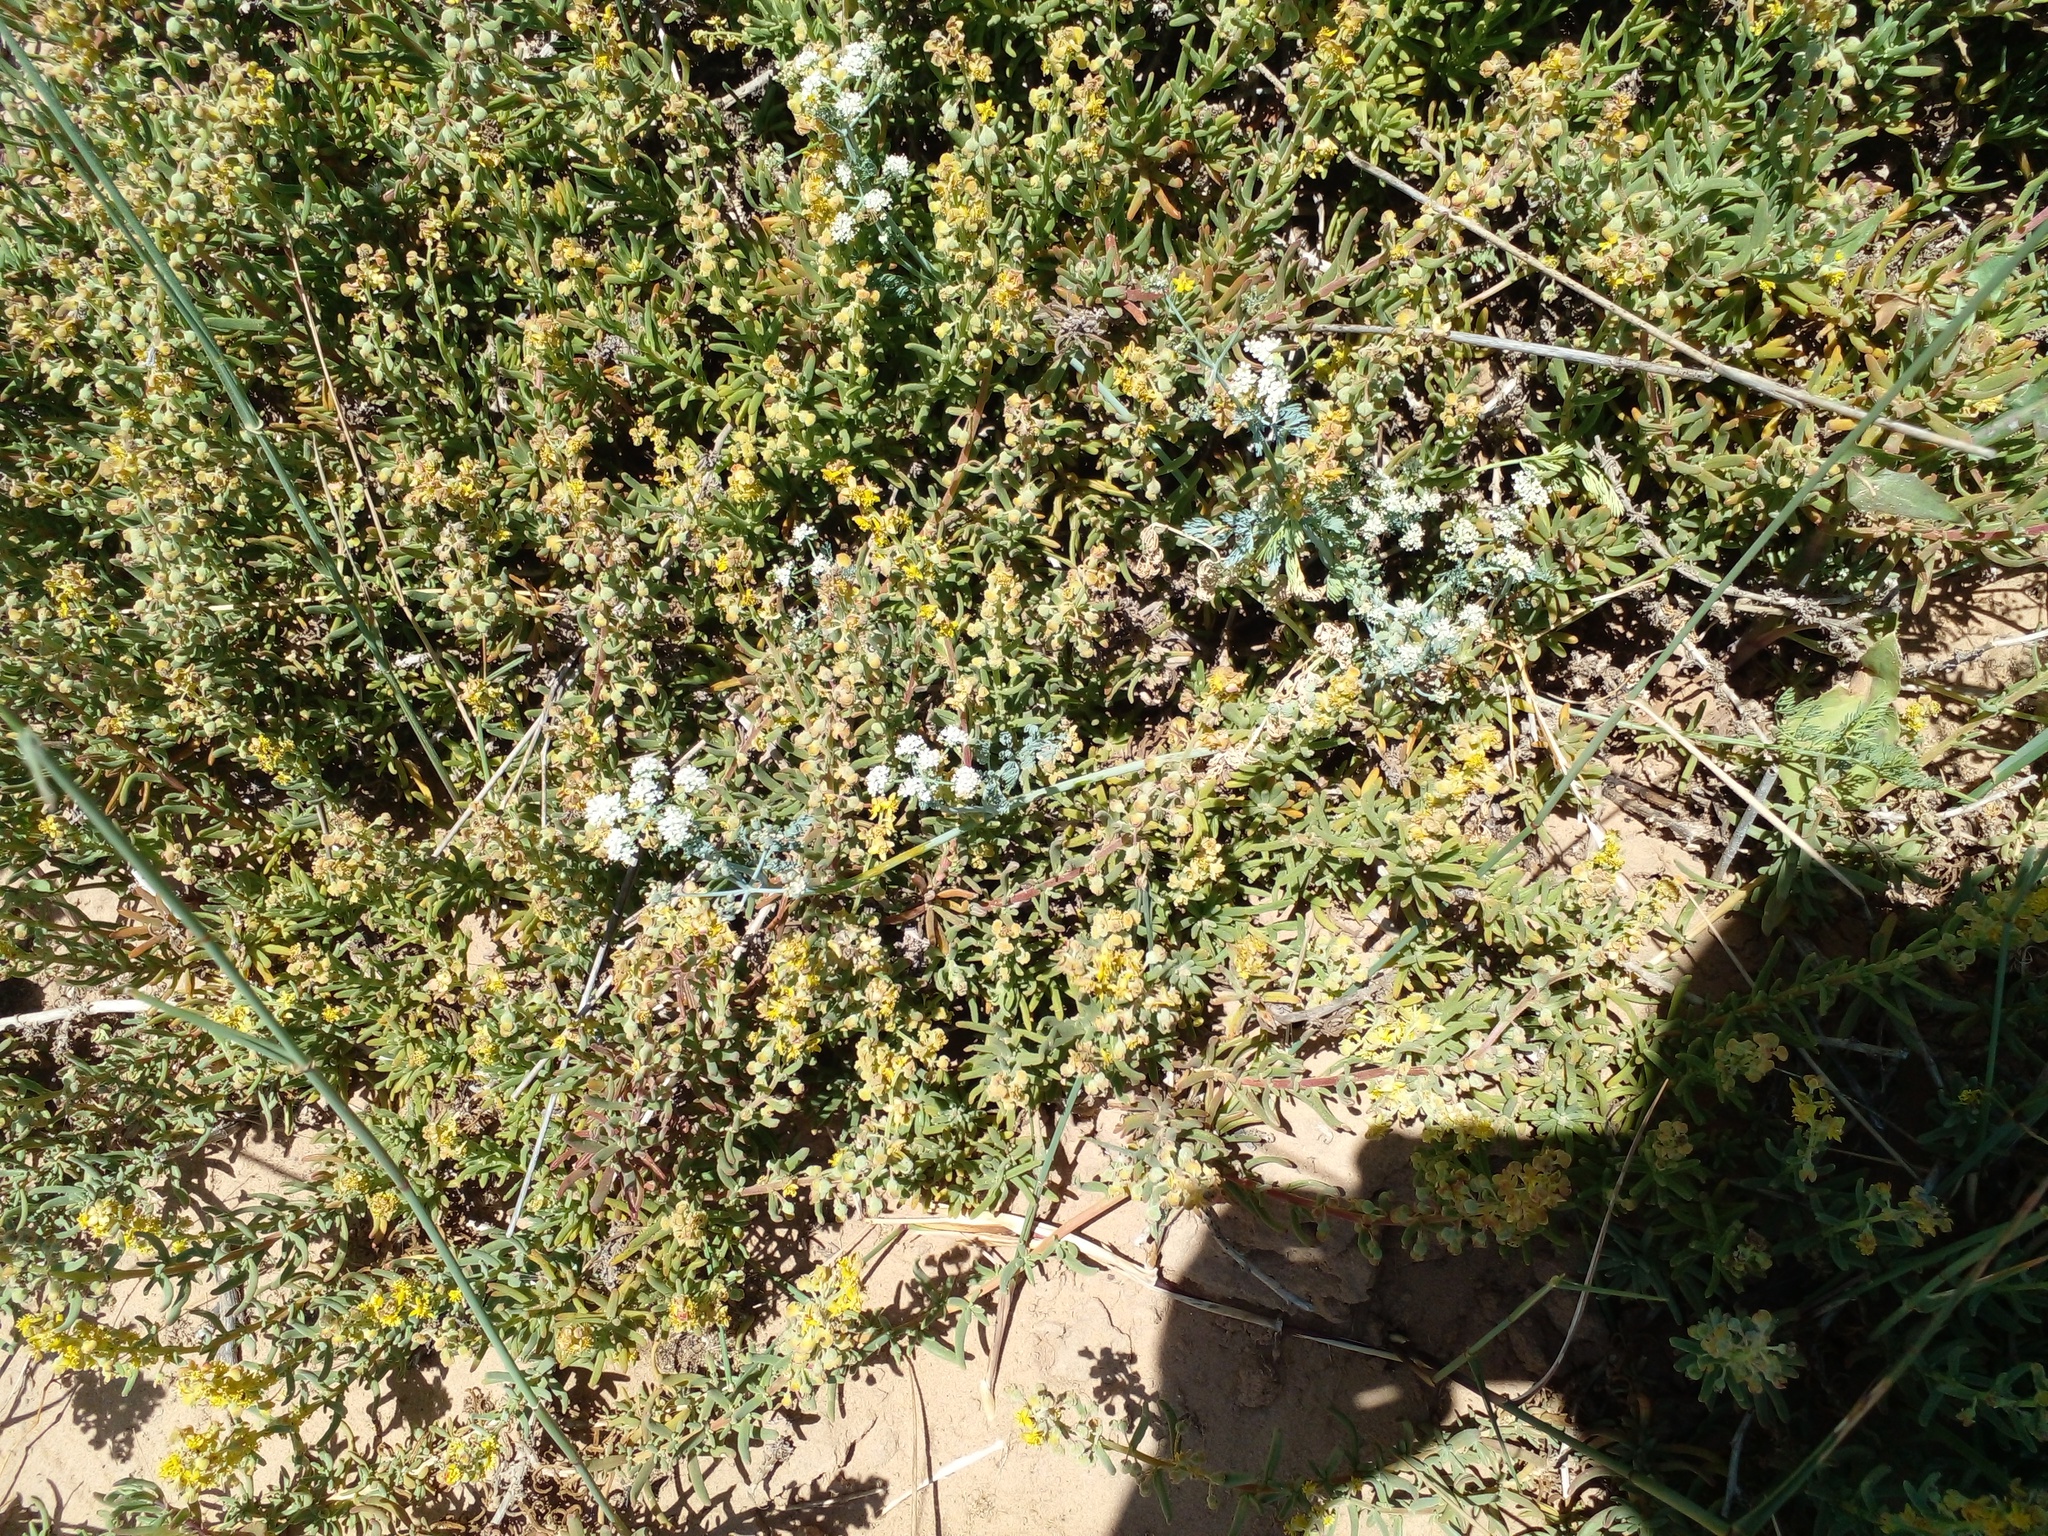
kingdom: Plantae
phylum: Tracheophyta
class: Magnoliopsida
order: Apiales
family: Apiaceae
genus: Capnophyllum
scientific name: Capnophyllum africanum
